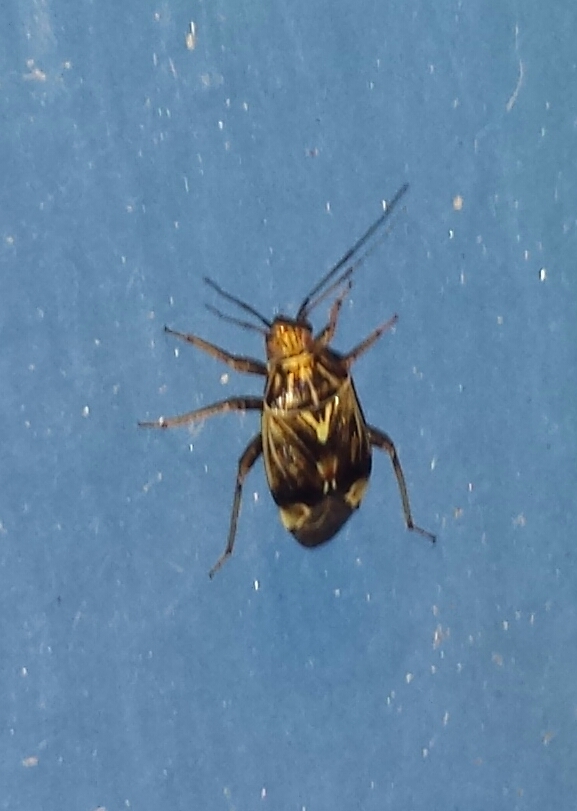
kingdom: Animalia
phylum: Arthropoda
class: Insecta
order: Hemiptera
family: Miridae
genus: Lygus
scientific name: Lygus lineolaris
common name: North american tarnished plant bug
